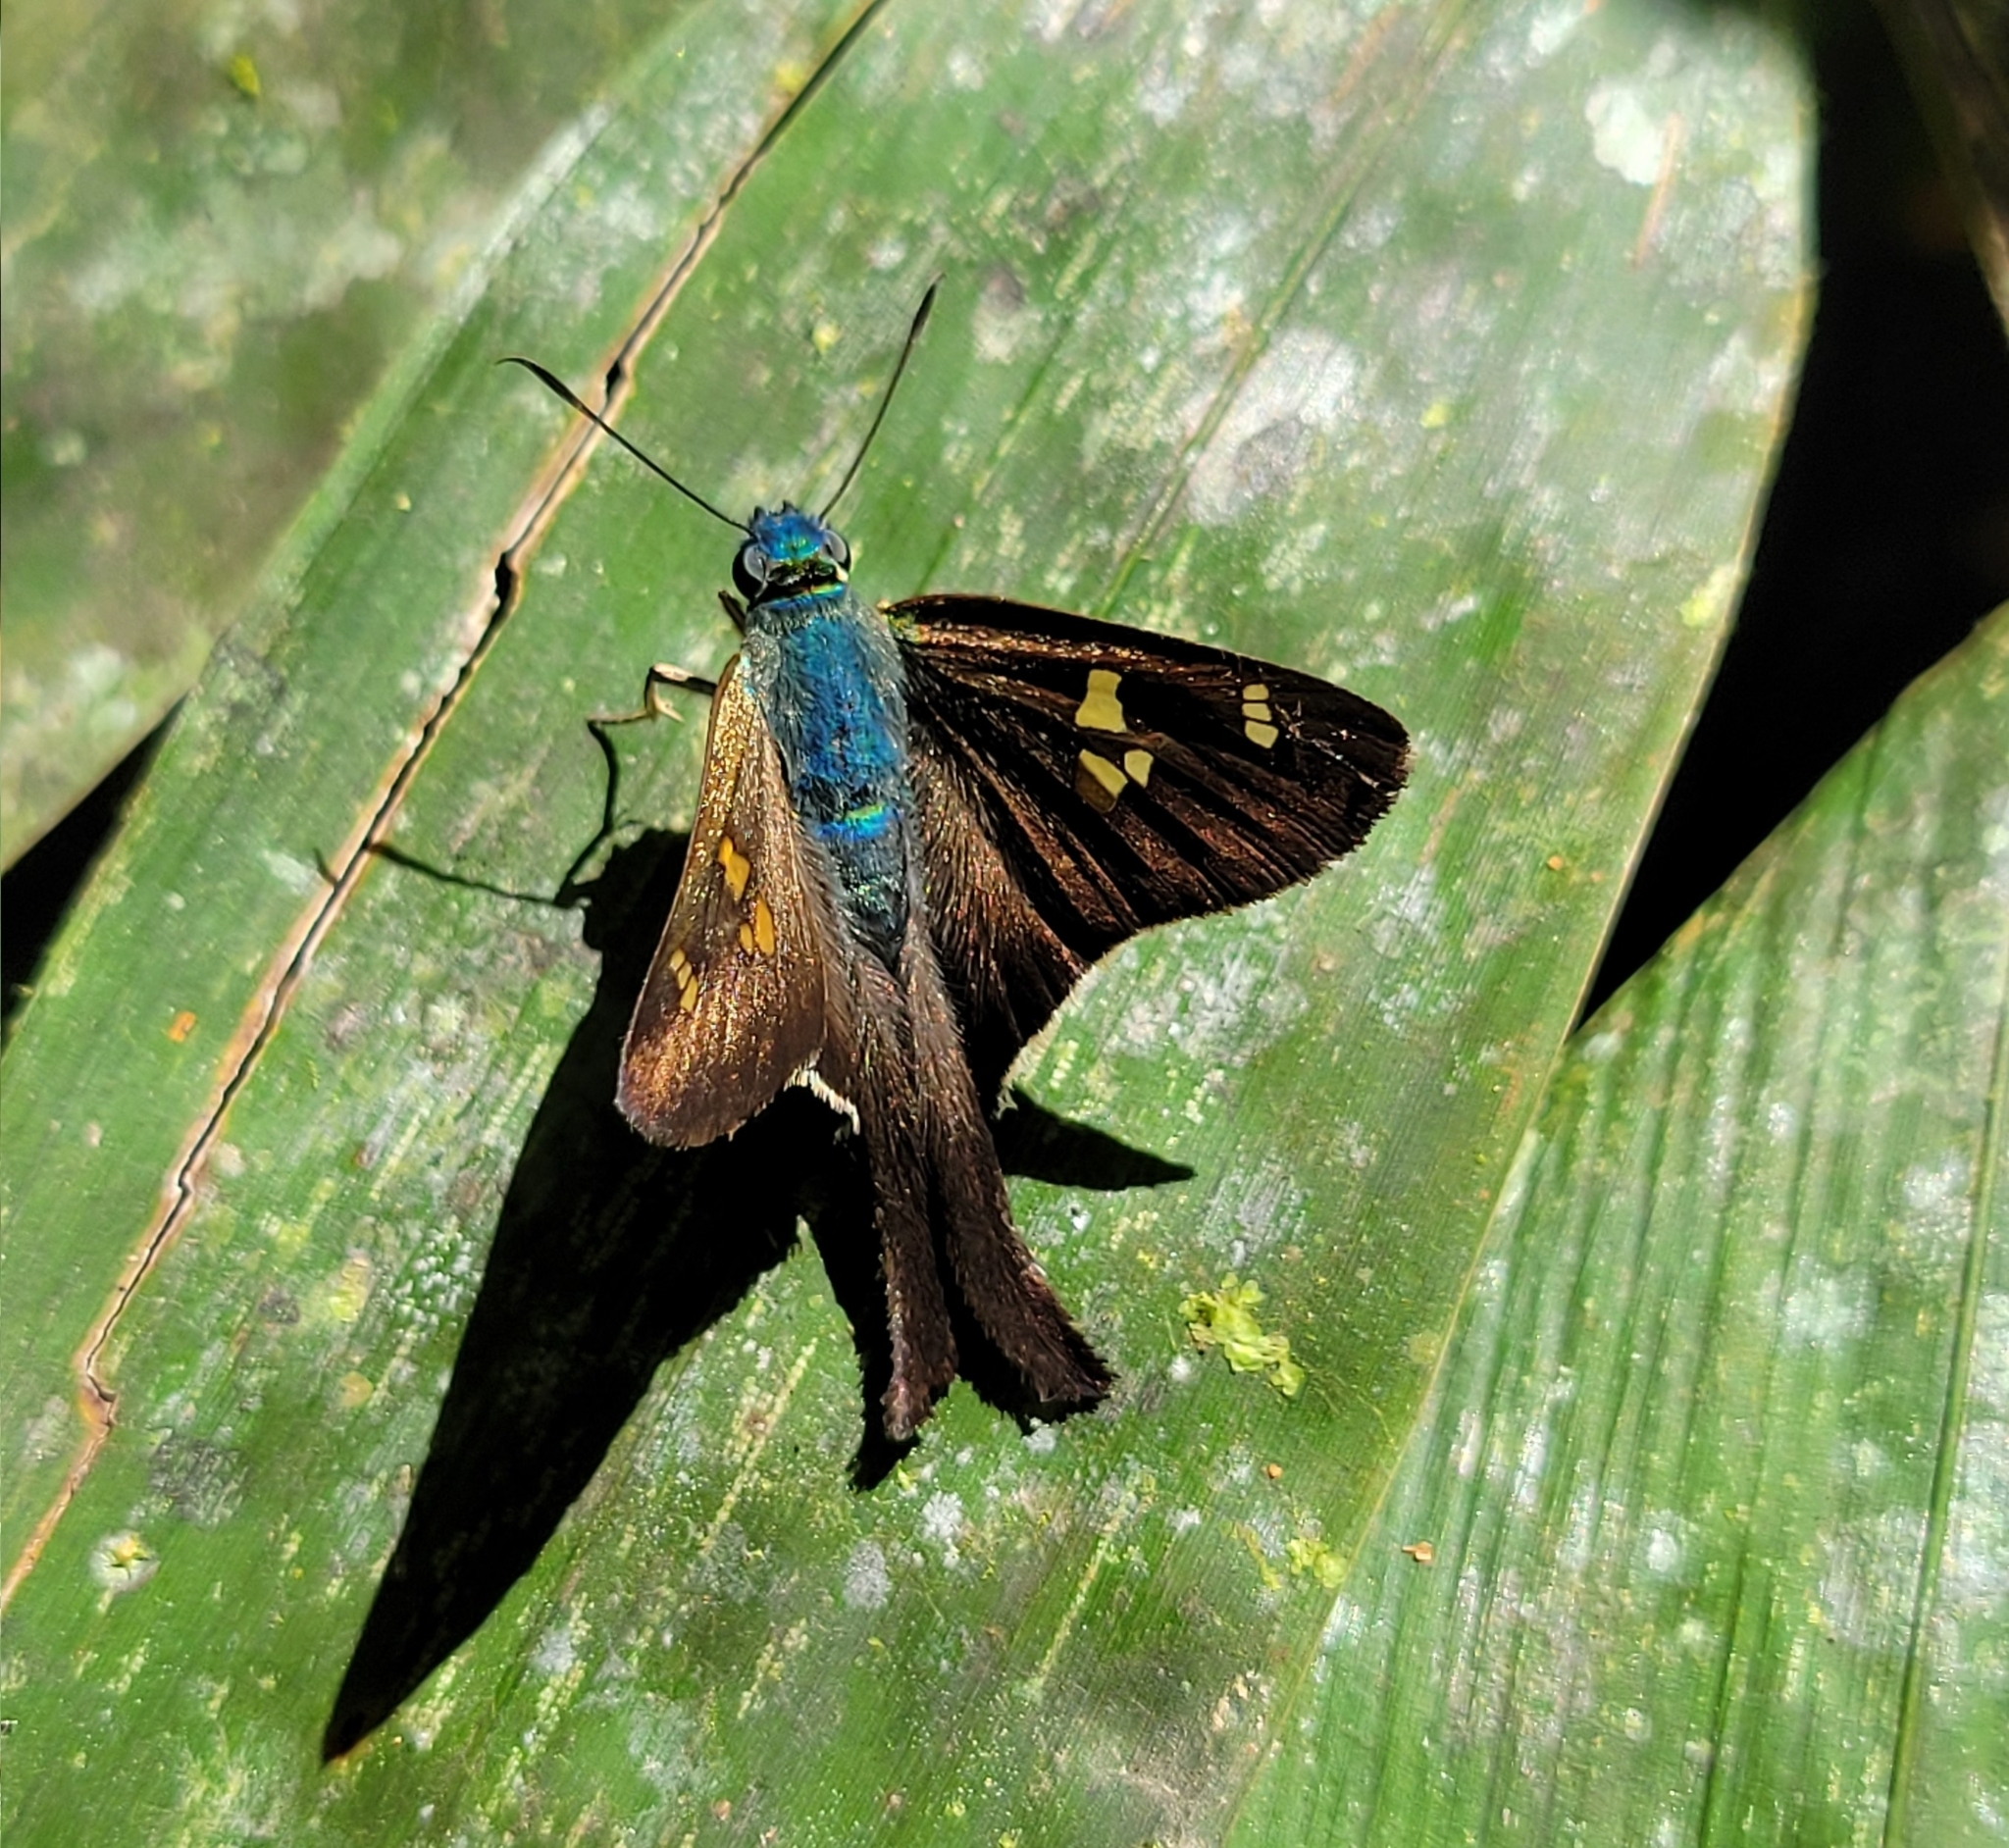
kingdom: Animalia
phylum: Arthropoda
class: Insecta
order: Lepidoptera
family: Hesperiidae
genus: Polythrix
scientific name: Polythrix auginus
